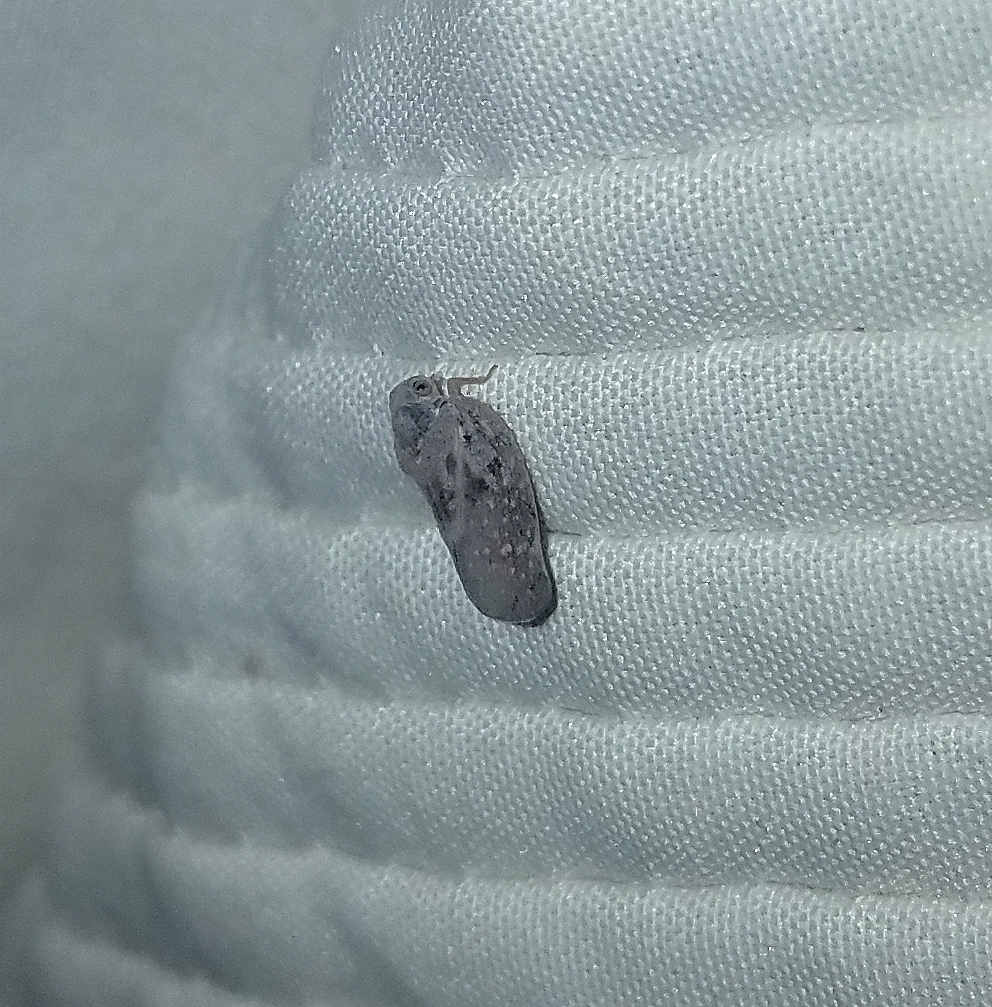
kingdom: Animalia
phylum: Arthropoda
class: Insecta
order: Hemiptera
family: Flatidae
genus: Metcalfa
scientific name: Metcalfa pruinosa
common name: Citrus flatid planthopper
